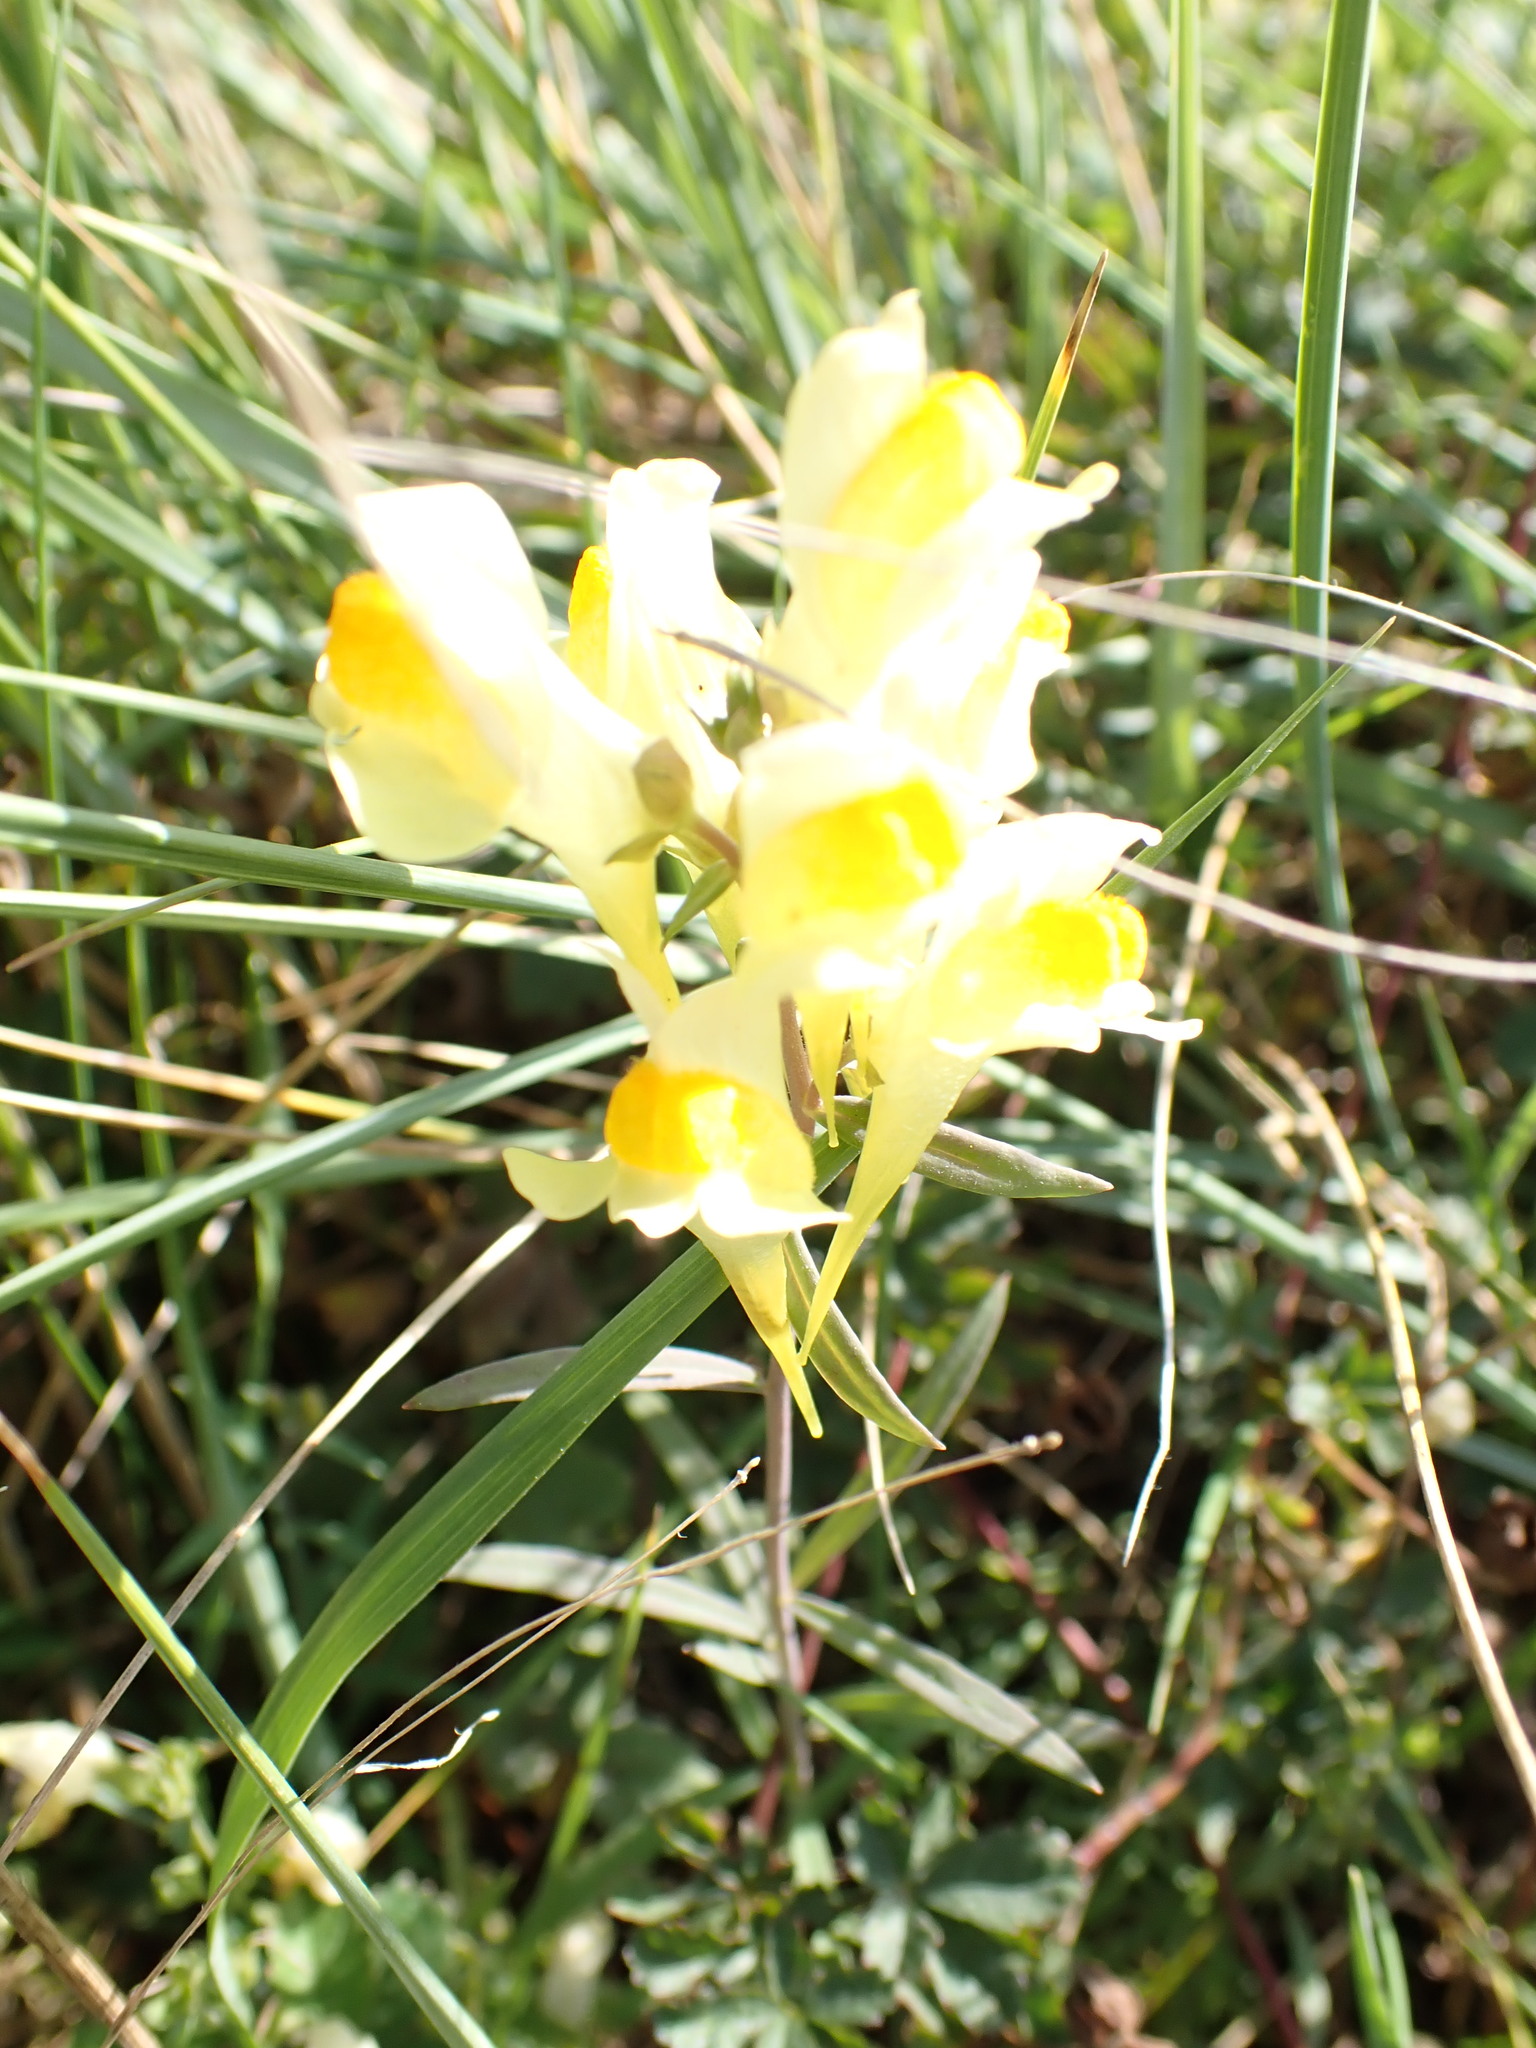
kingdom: Plantae
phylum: Tracheophyta
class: Magnoliopsida
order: Lamiales
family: Plantaginaceae
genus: Linaria
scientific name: Linaria vulgaris
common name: Butter and eggs
